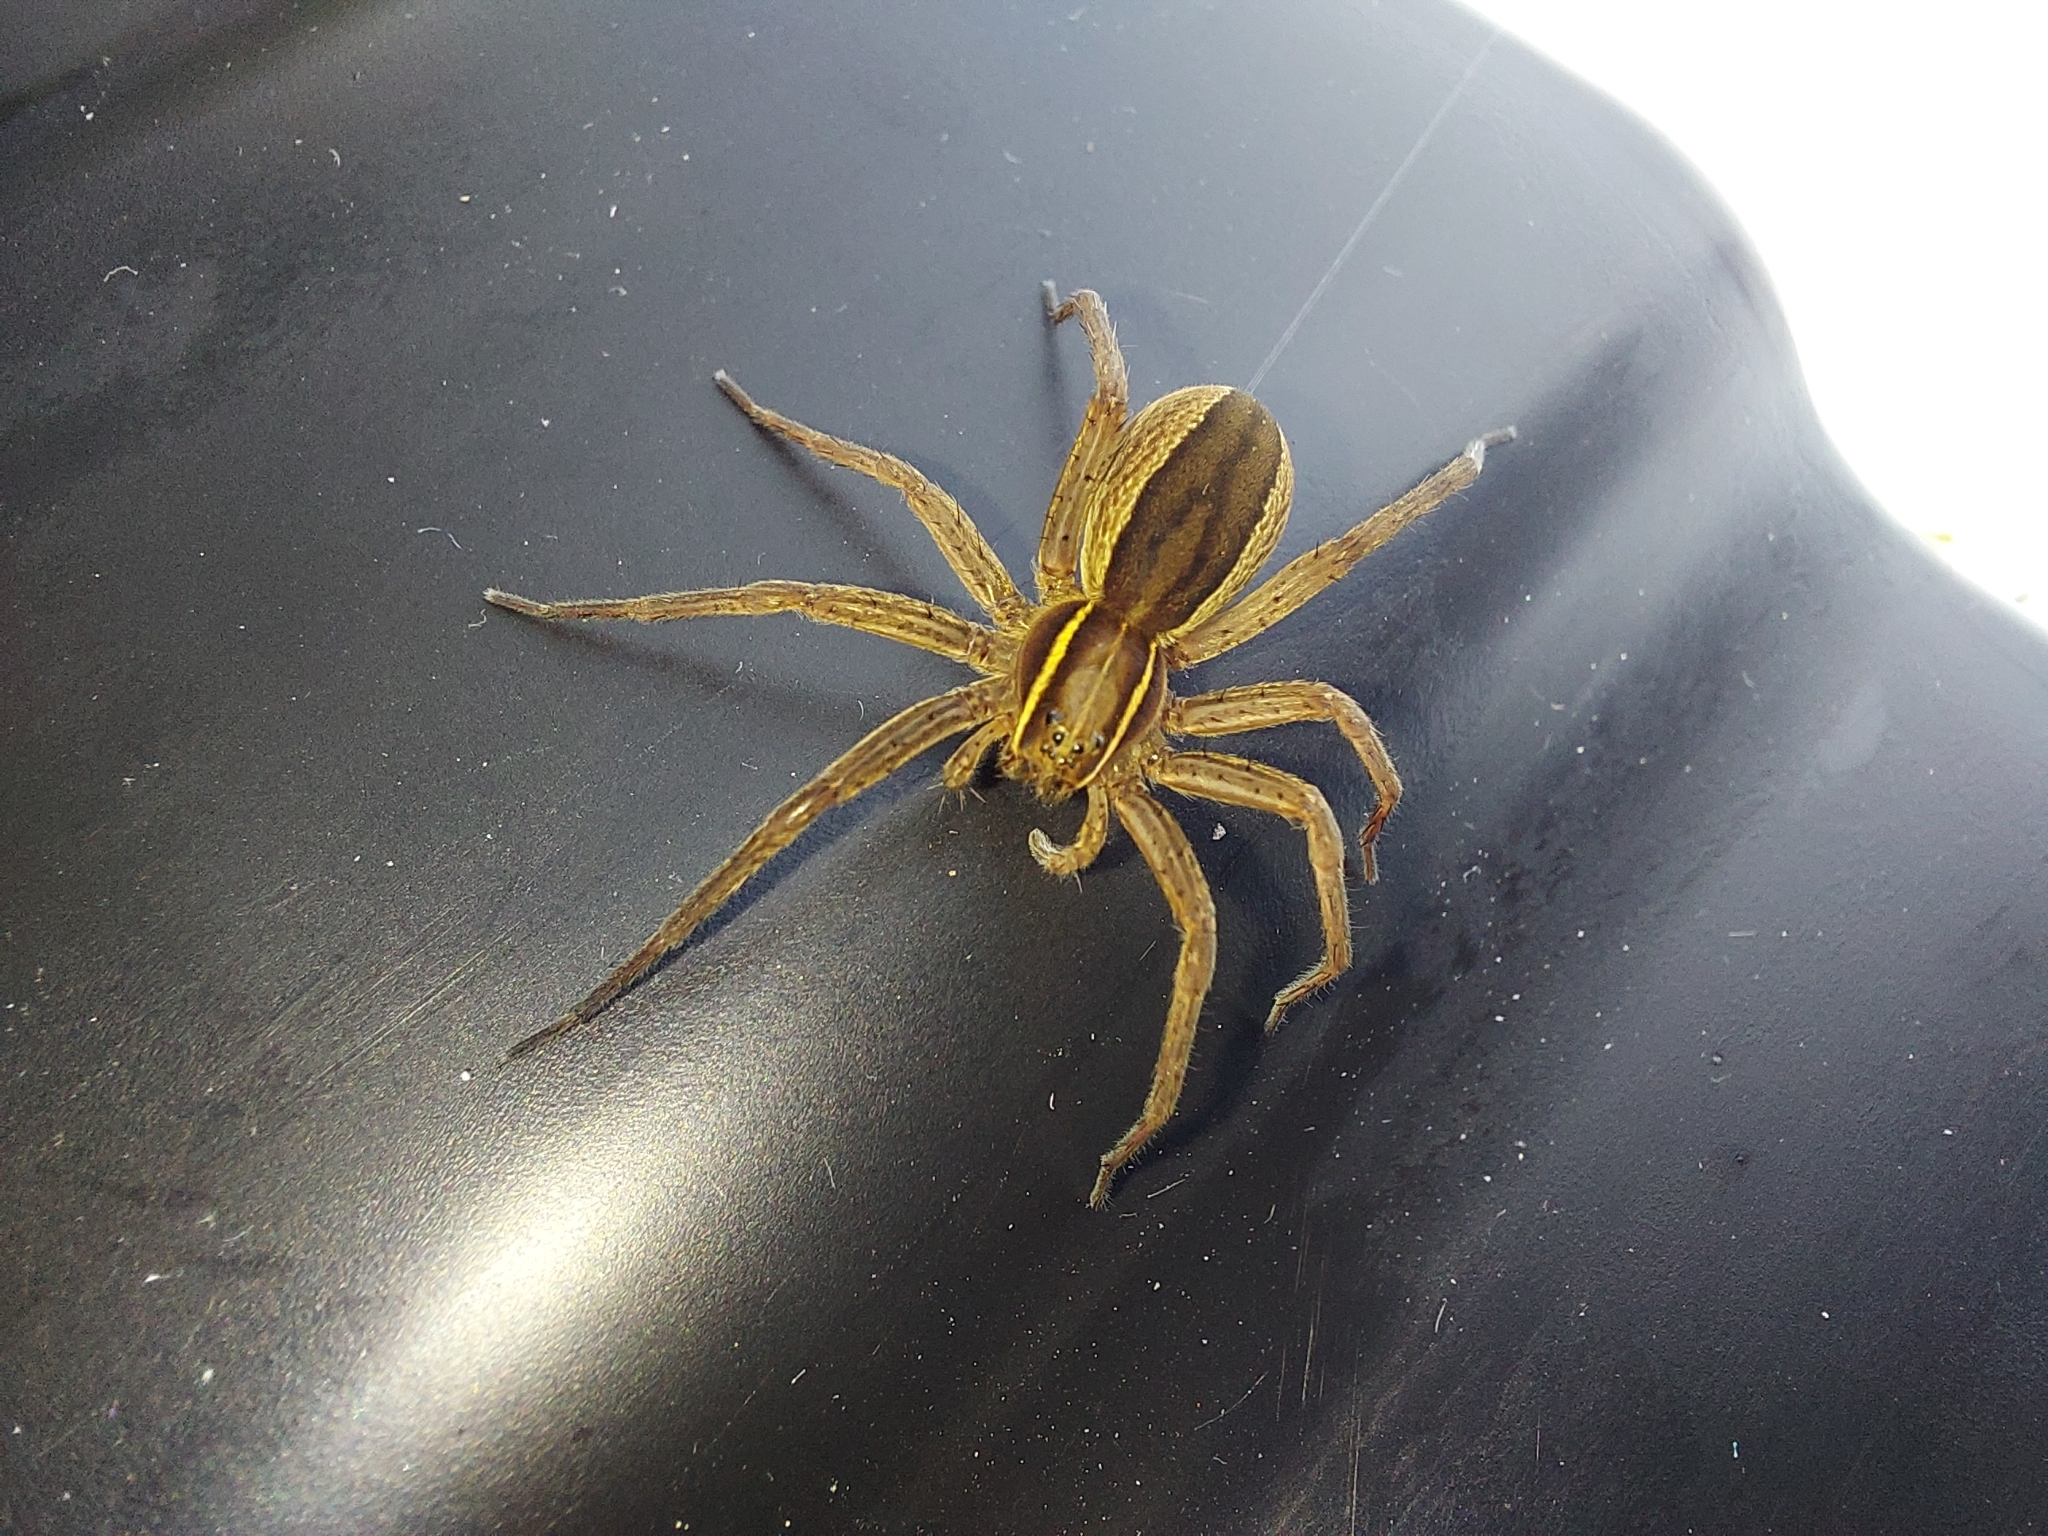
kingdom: Animalia
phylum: Arthropoda
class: Arachnida
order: Araneae
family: Pisauridae
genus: Dolomedes
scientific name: Dolomedes striatus
